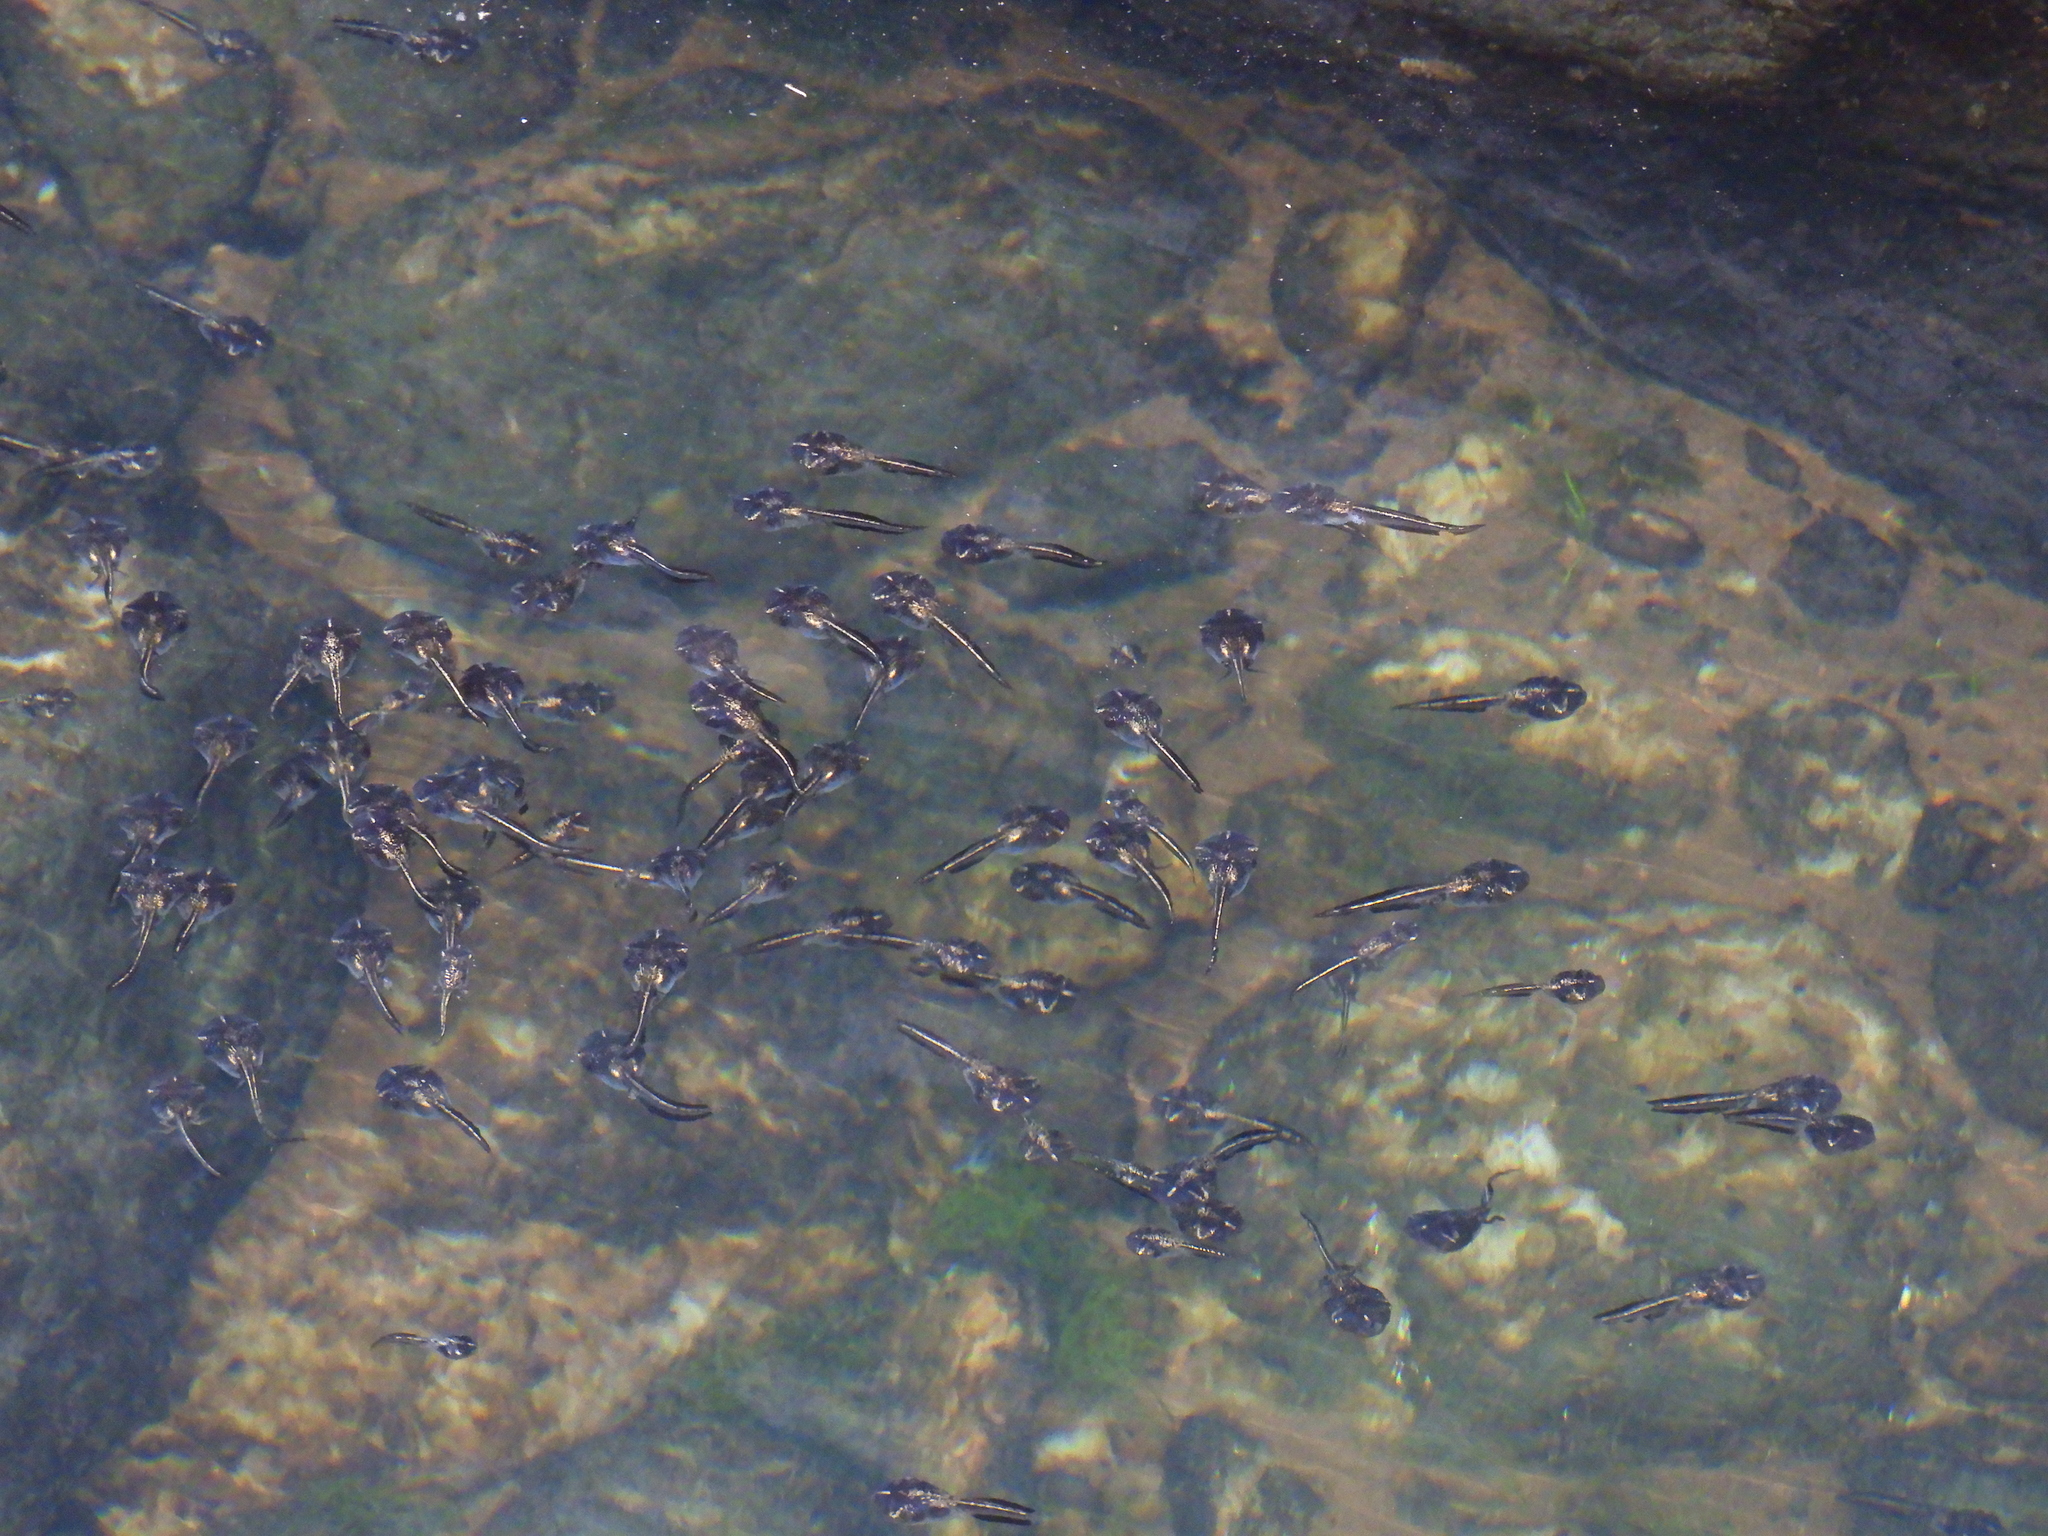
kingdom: Animalia
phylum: Chordata
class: Amphibia
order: Anura
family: Microhylidae
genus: Phrynomantis
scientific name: Phrynomantis annectens
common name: Marbled rubber frog
